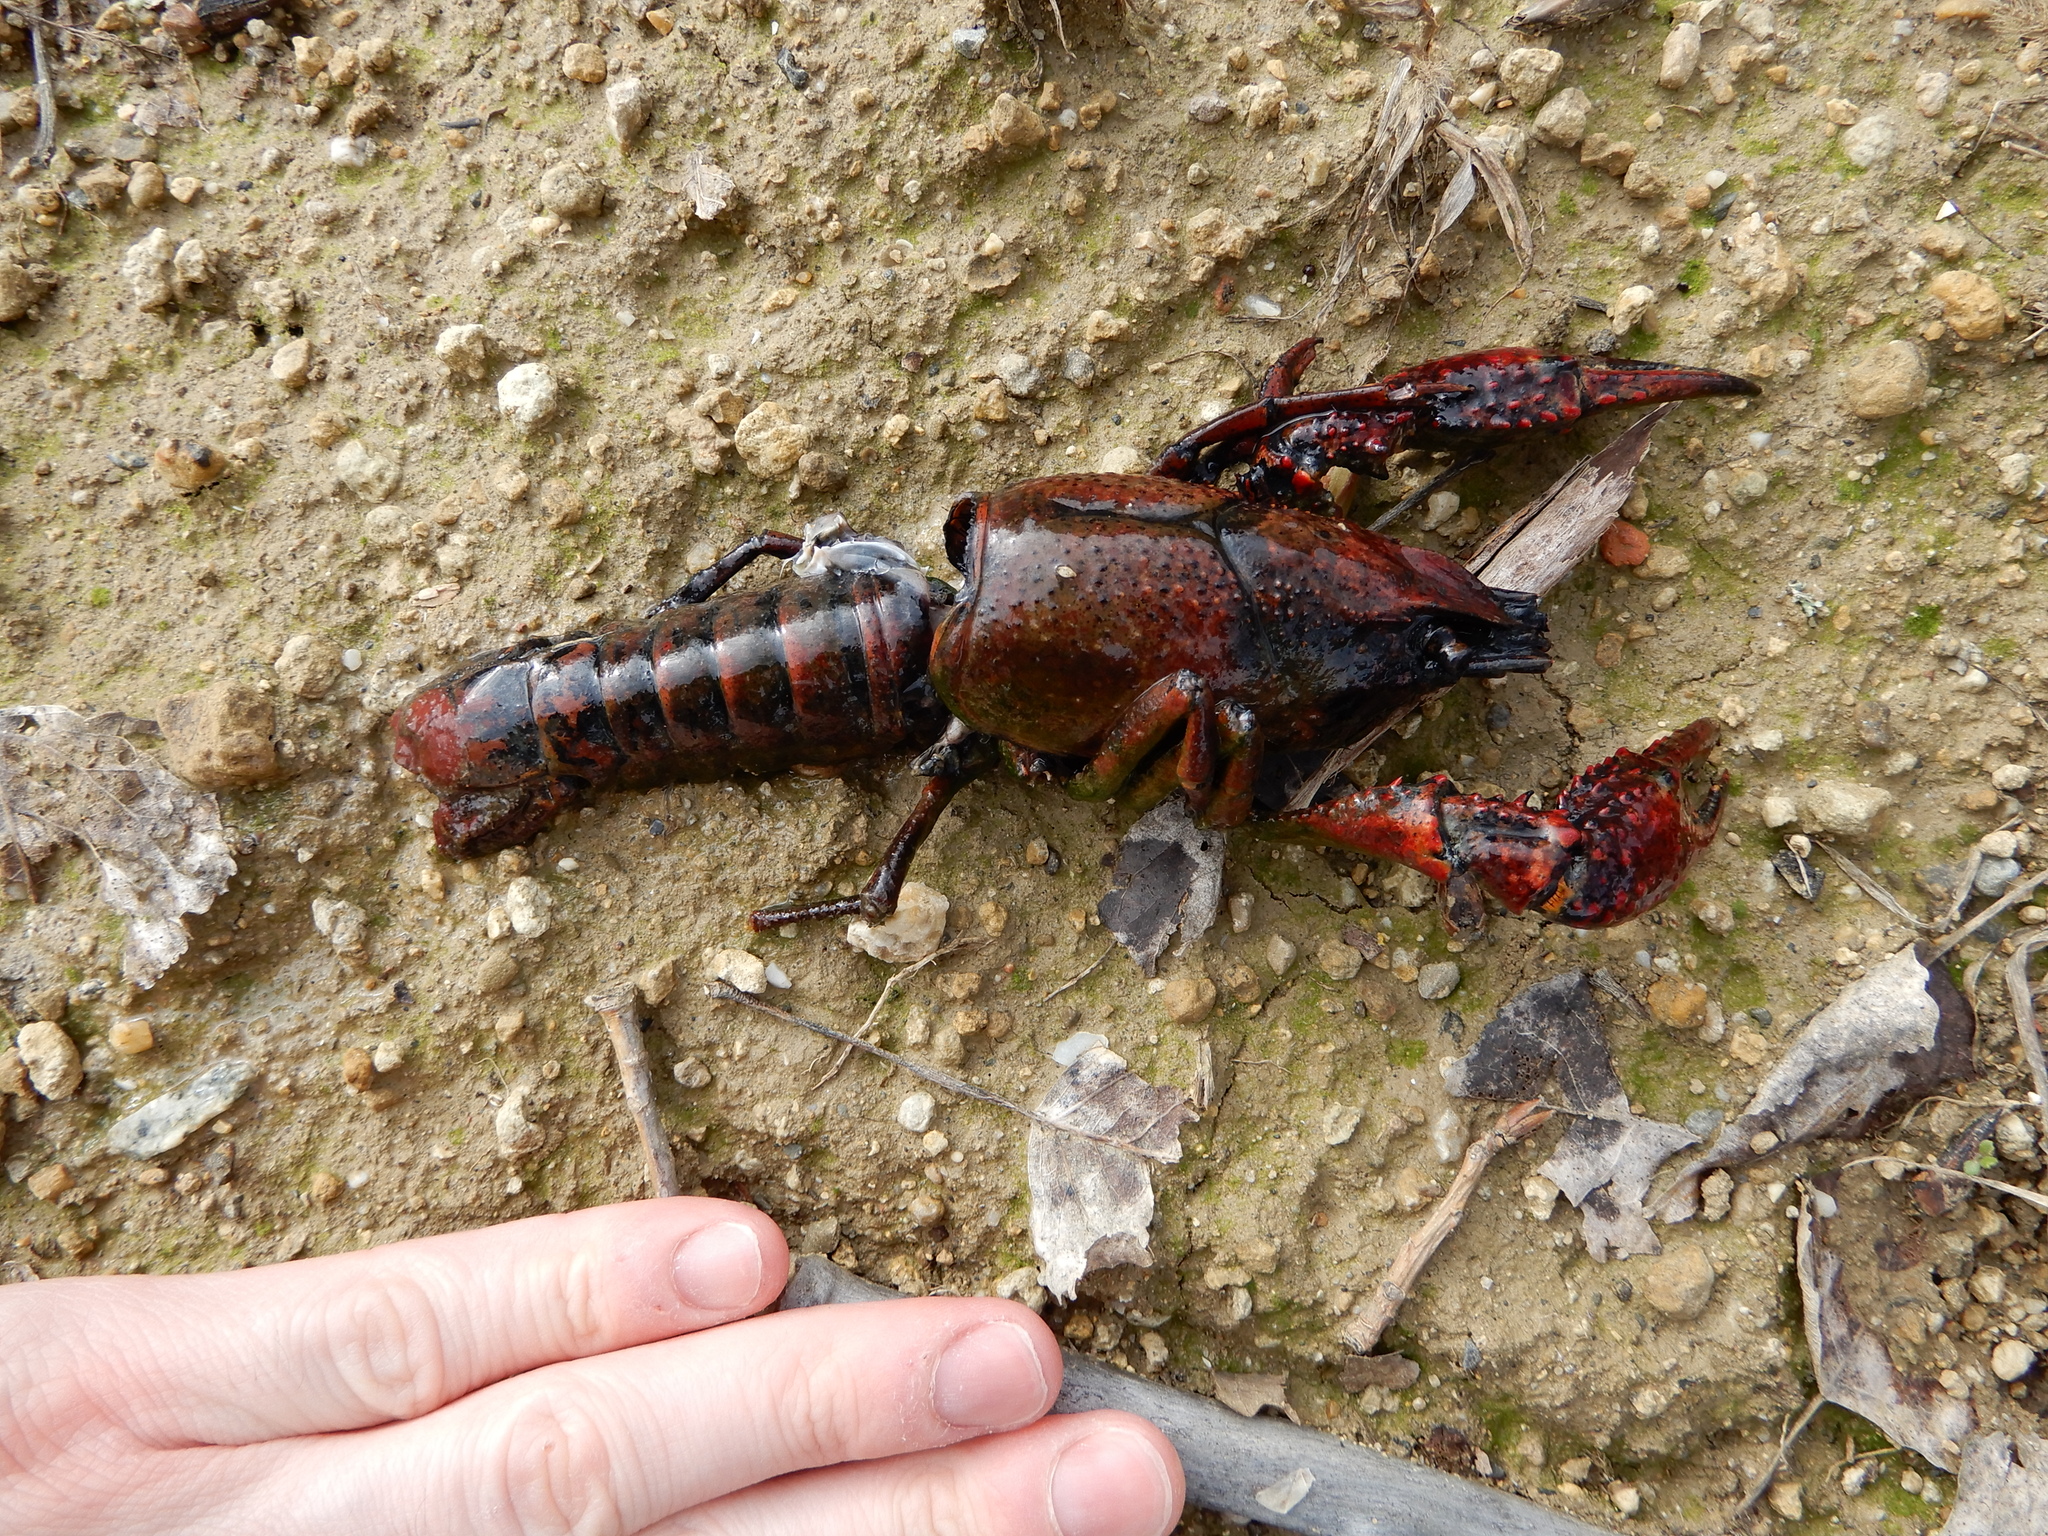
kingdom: Animalia
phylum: Arthropoda
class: Malacostraca
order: Decapoda
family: Cambaridae
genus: Procambarus
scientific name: Procambarus clarkii
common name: Red swamp crayfish
